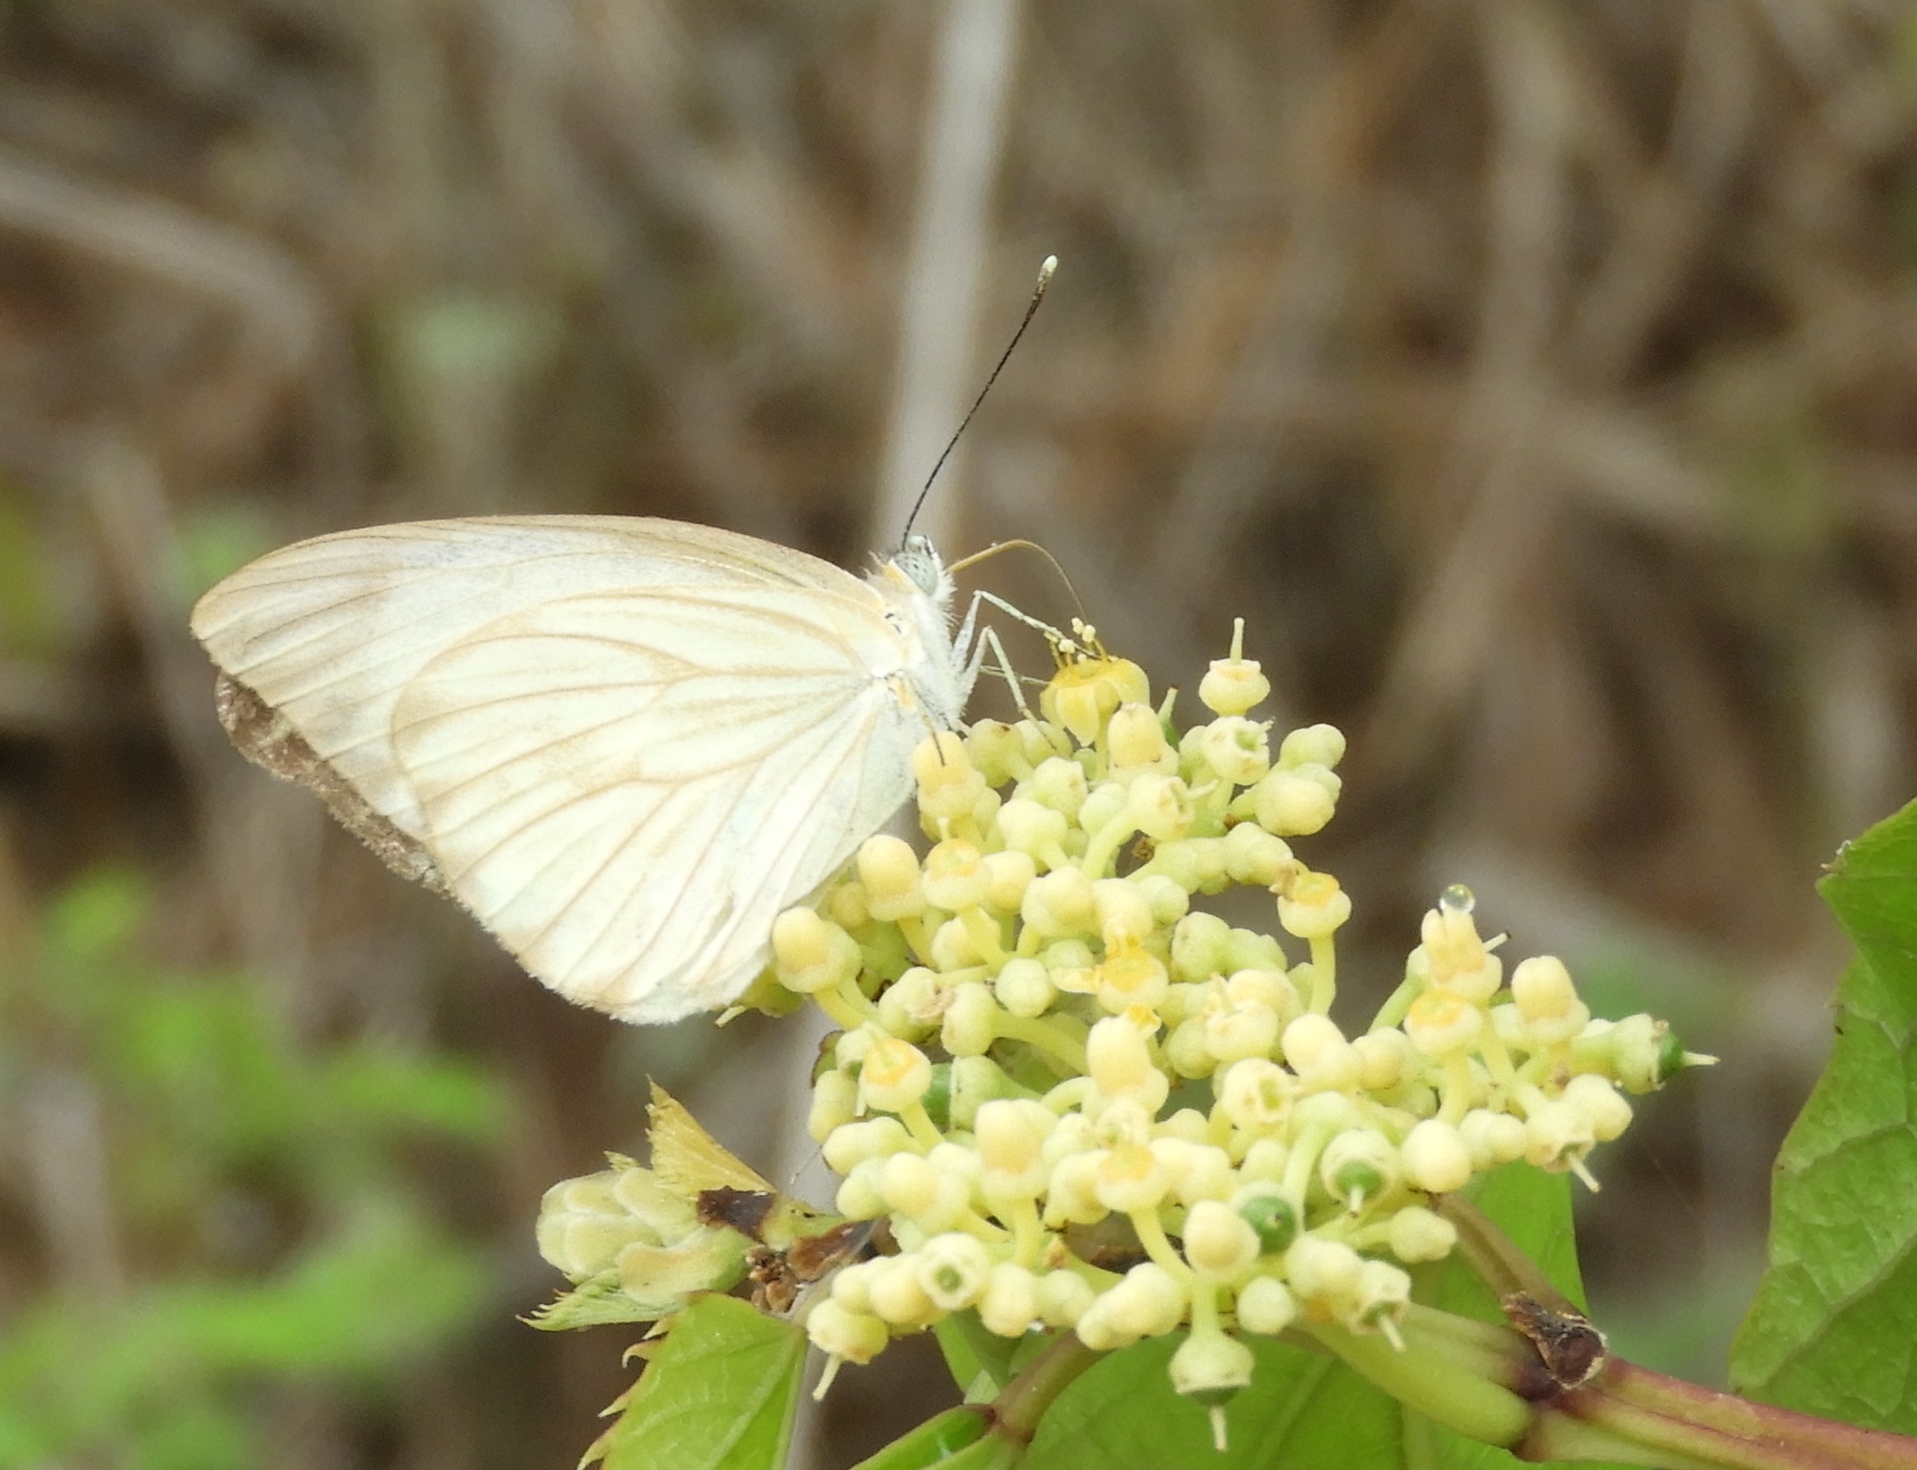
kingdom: Animalia
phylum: Arthropoda
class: Insecta
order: Lepidoptera
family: Pieridae
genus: Ascia
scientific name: Ascia monuste
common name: Great southern white
